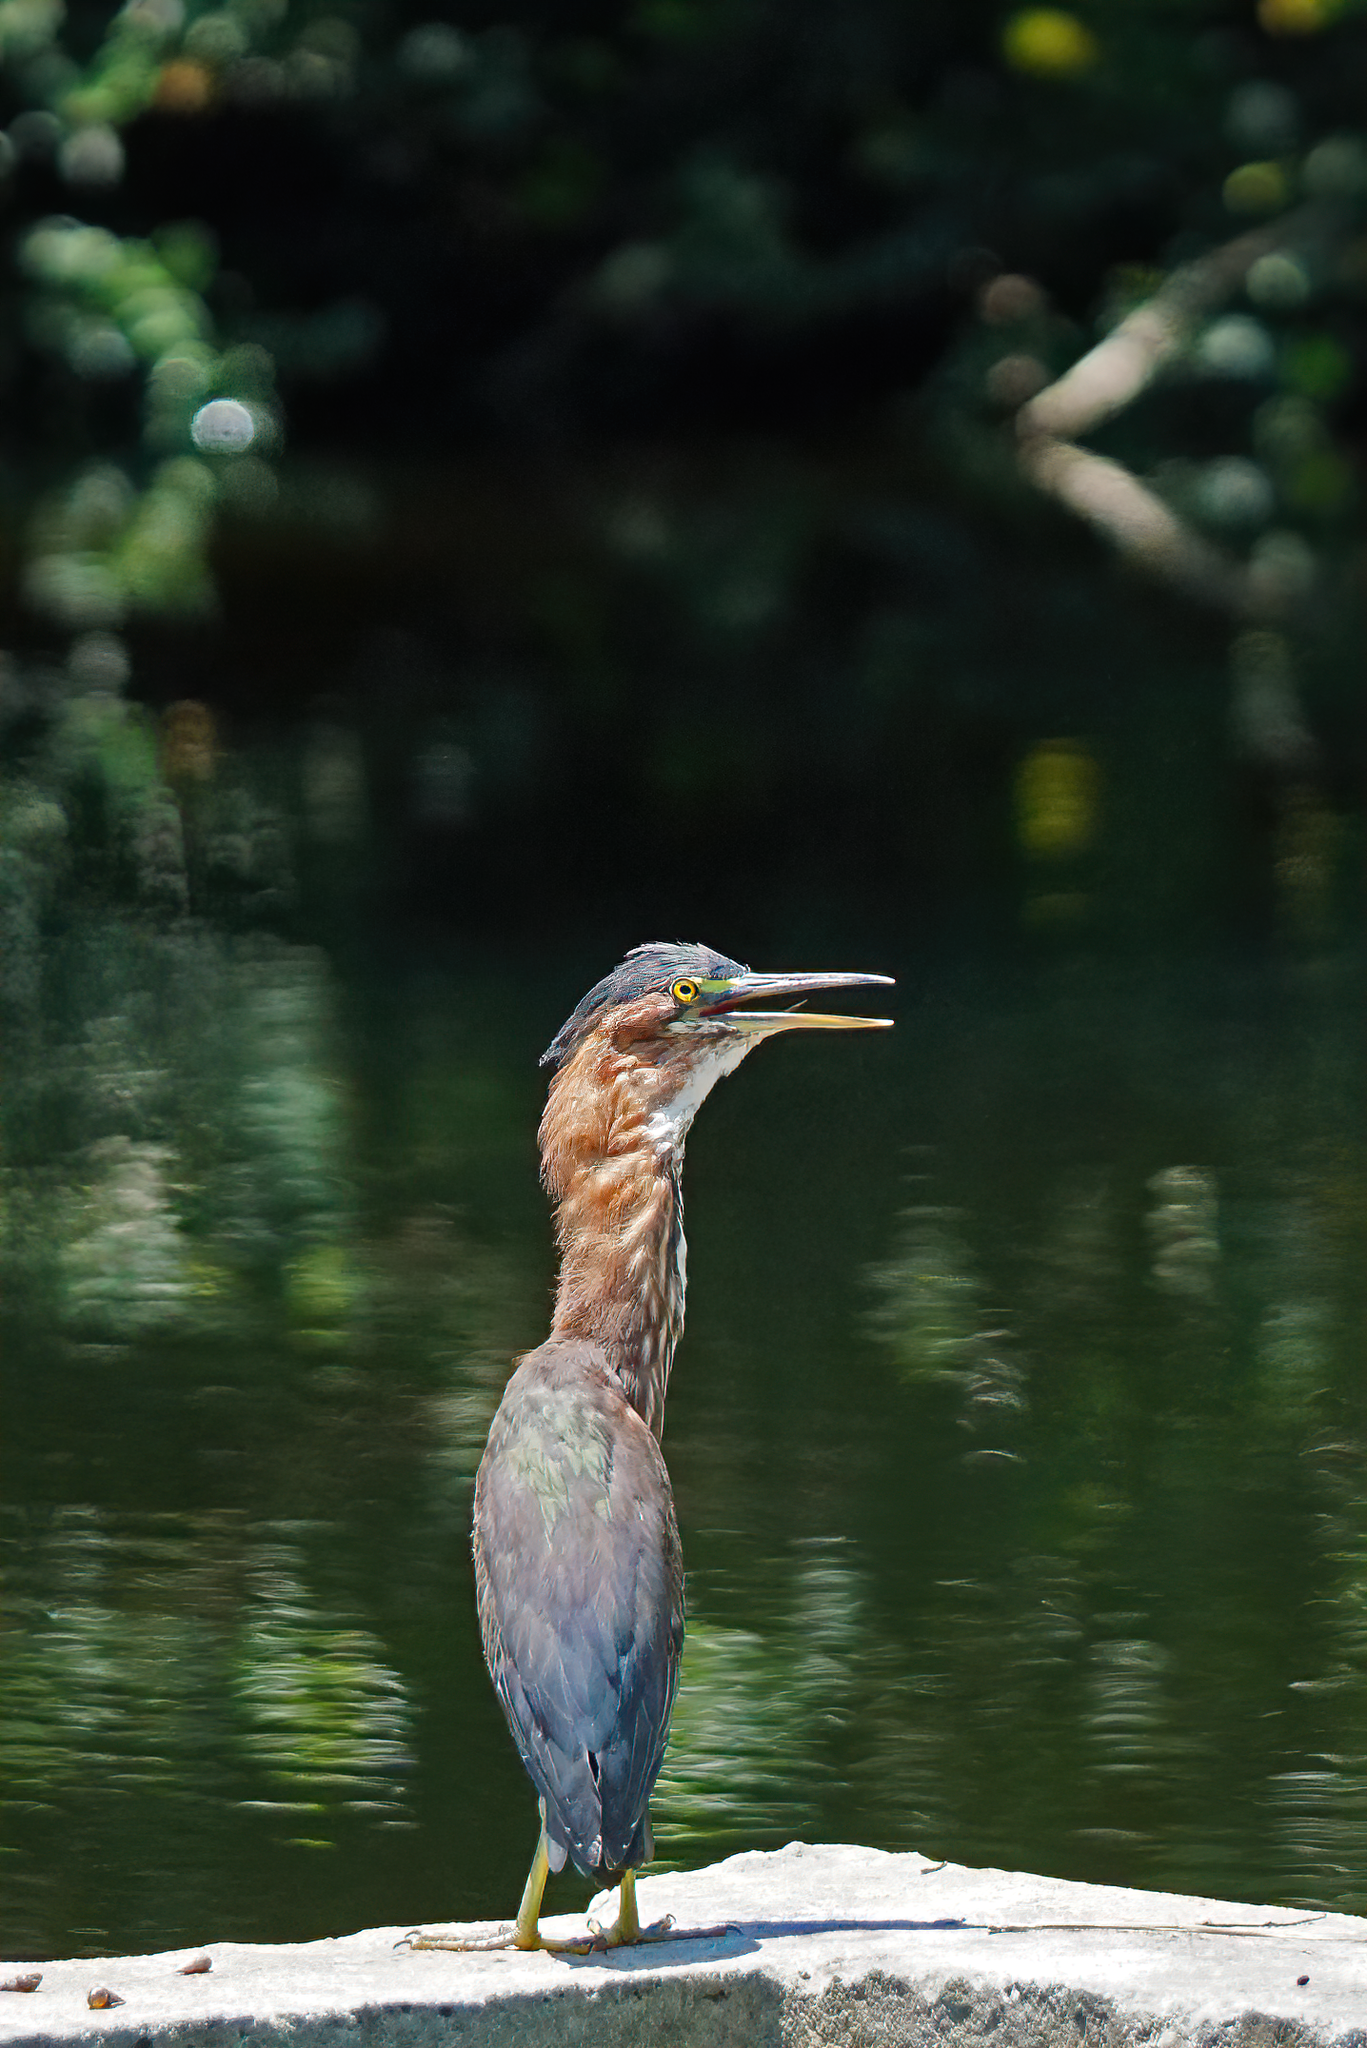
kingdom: Animalia
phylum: Chordata
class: Aves
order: Pelecaniformes
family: Ardeidae
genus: Butorides
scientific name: Butorides virescens
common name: Green heron
